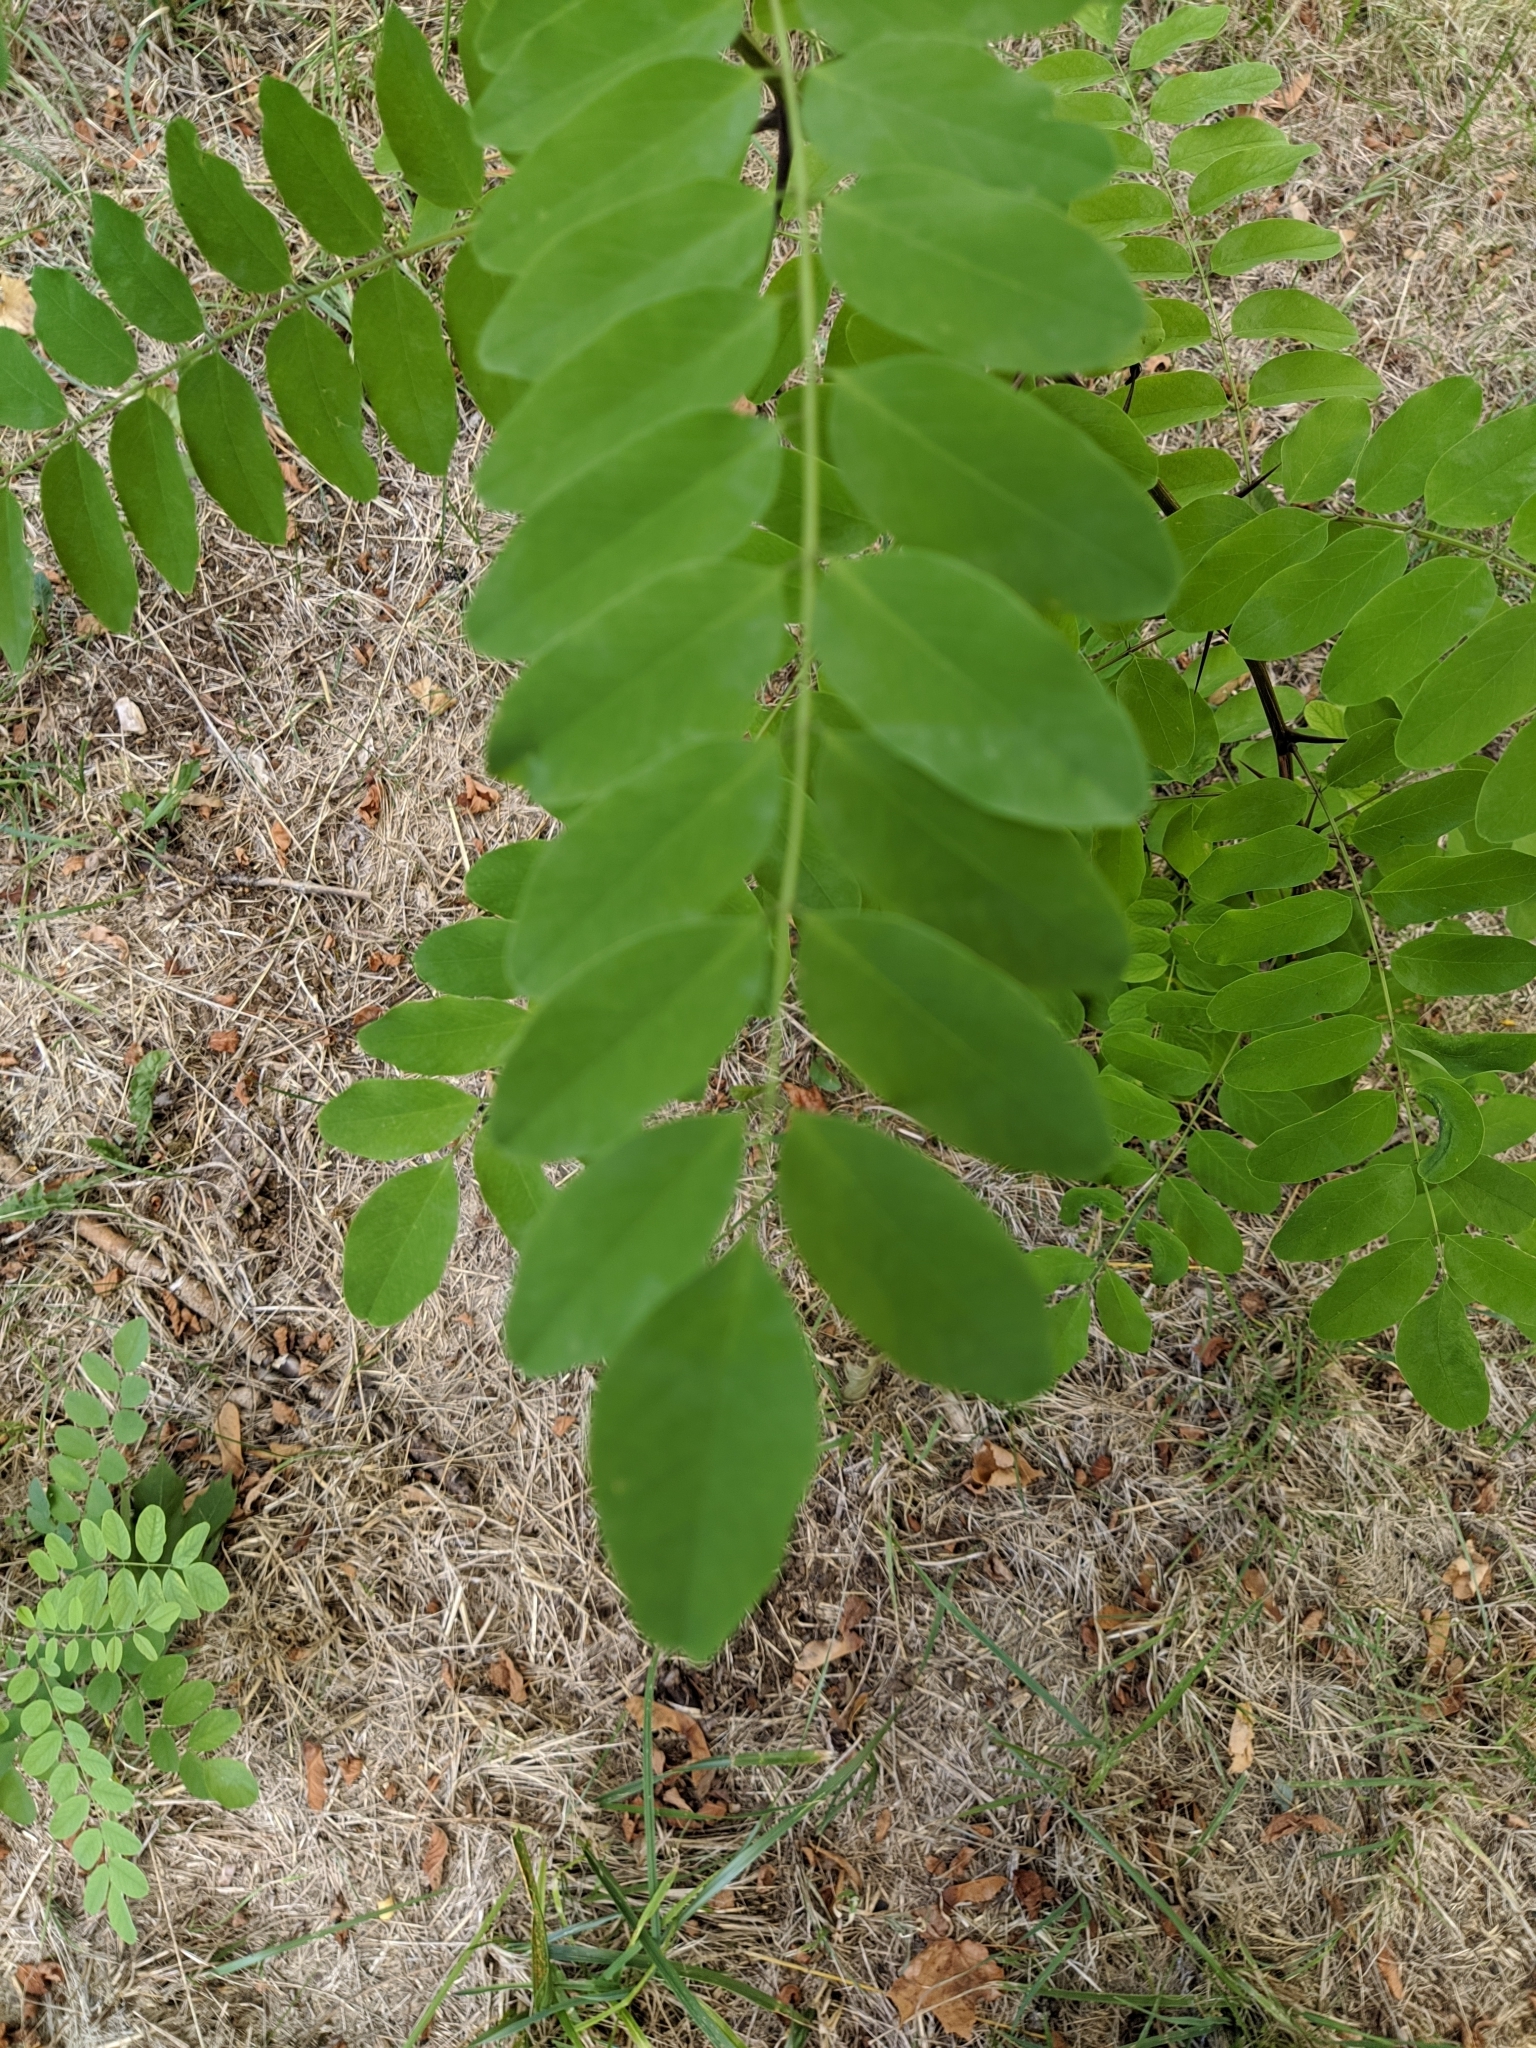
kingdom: Plantae
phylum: Tracheophyta
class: Magnoliopsida
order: Fabales
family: Fabaceae
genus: Robinia
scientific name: Robinia pseudoacacia
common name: Black locust
